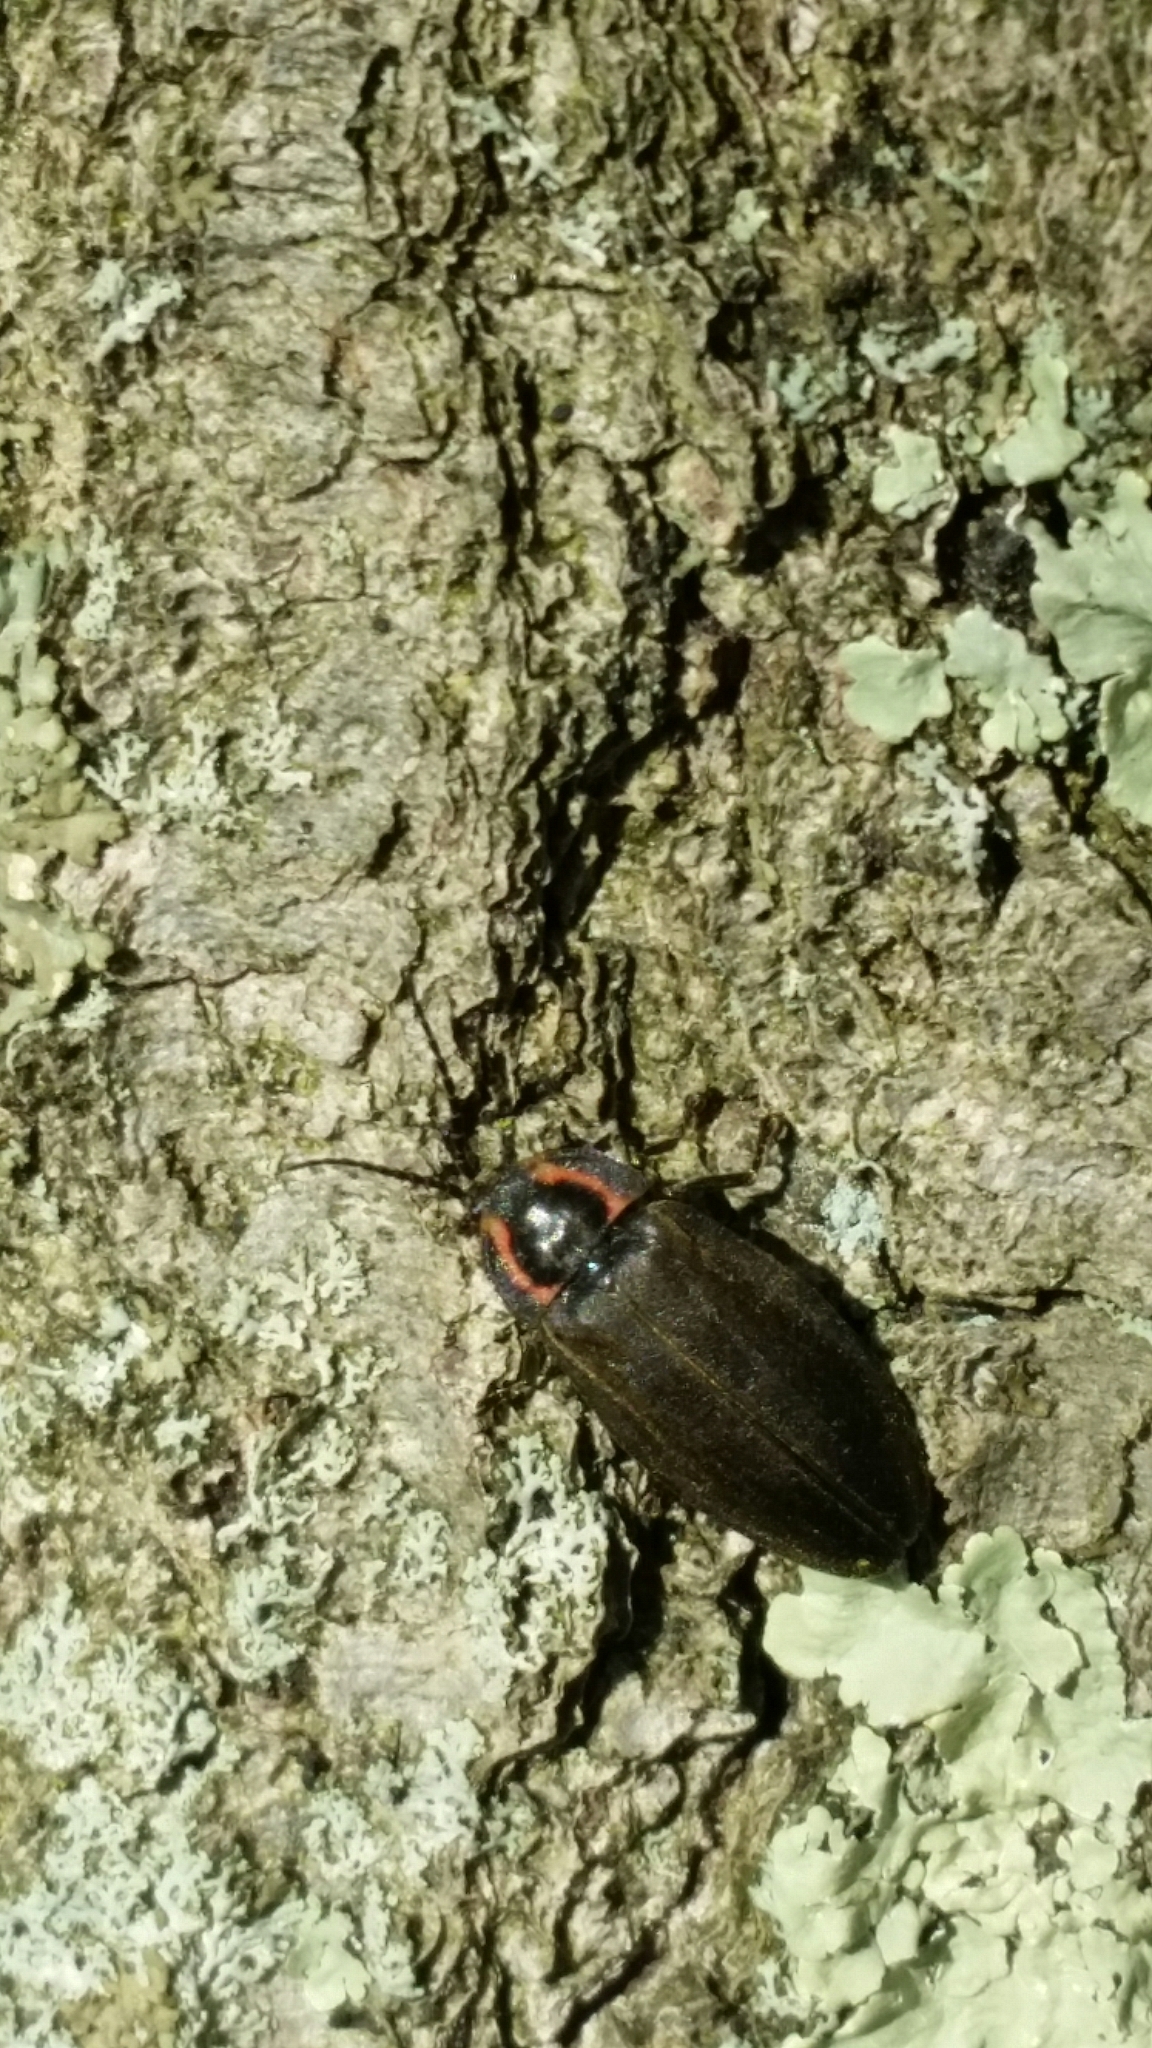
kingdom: Animalia
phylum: Arthropoda
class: Insecta
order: Coleoptera
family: Lampyridae
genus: Photinus
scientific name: Photinus corrusca
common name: Winter firefly
